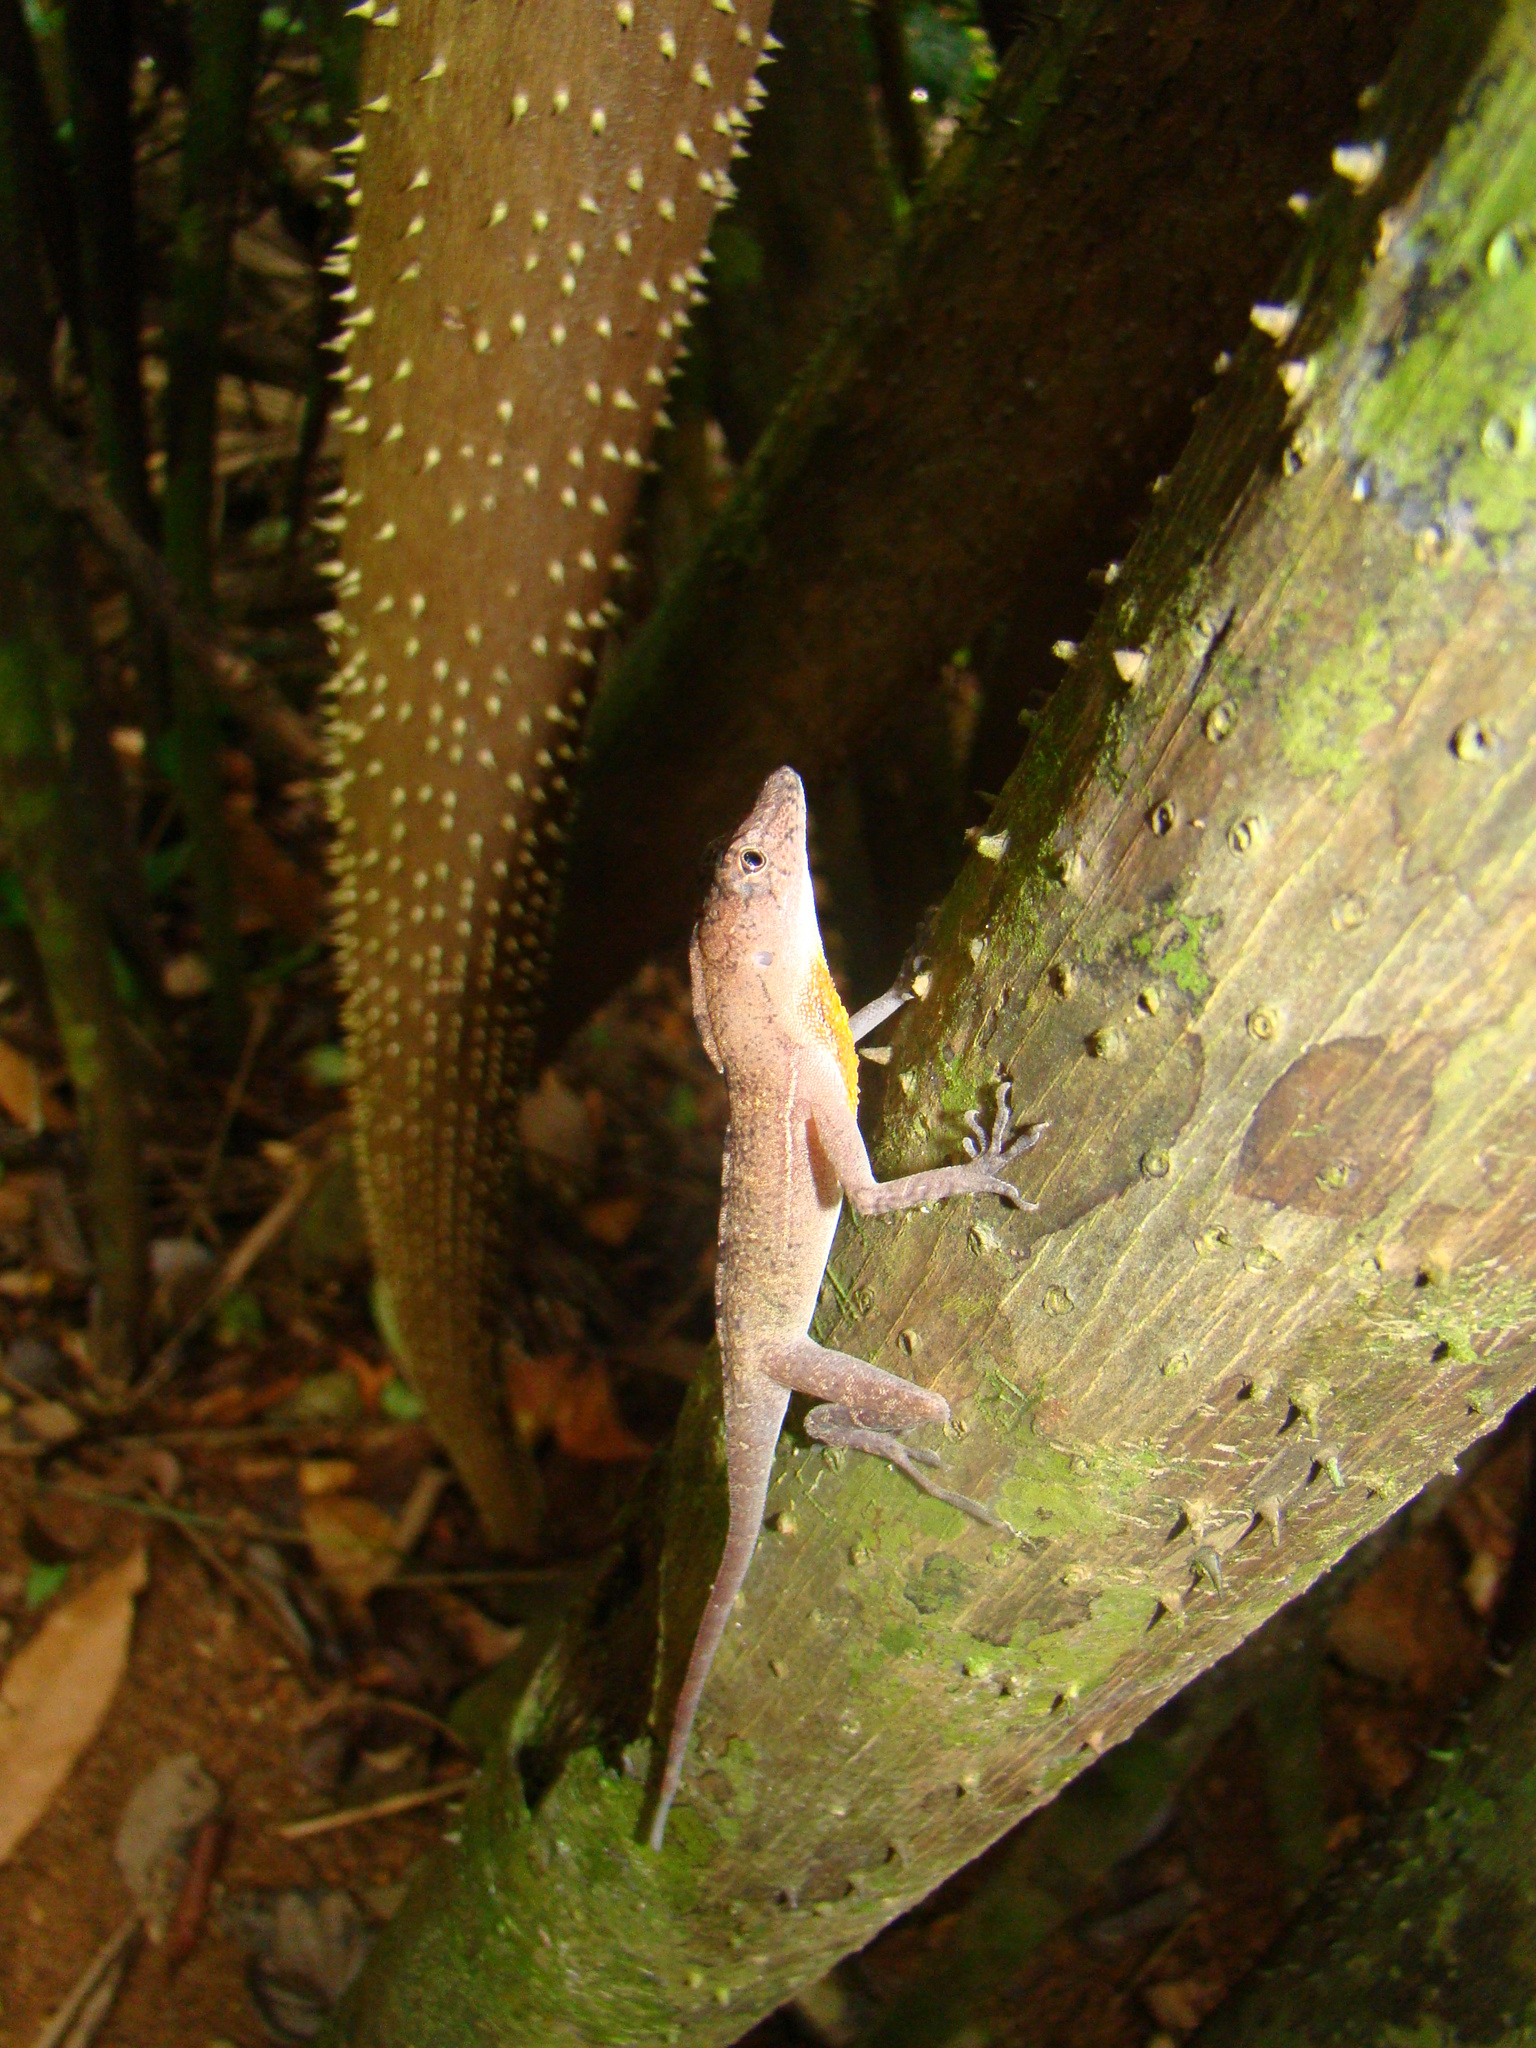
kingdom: Animalia
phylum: Chordata
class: Squamata
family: Dactyloidae
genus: Anolis
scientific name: Anolis osa
